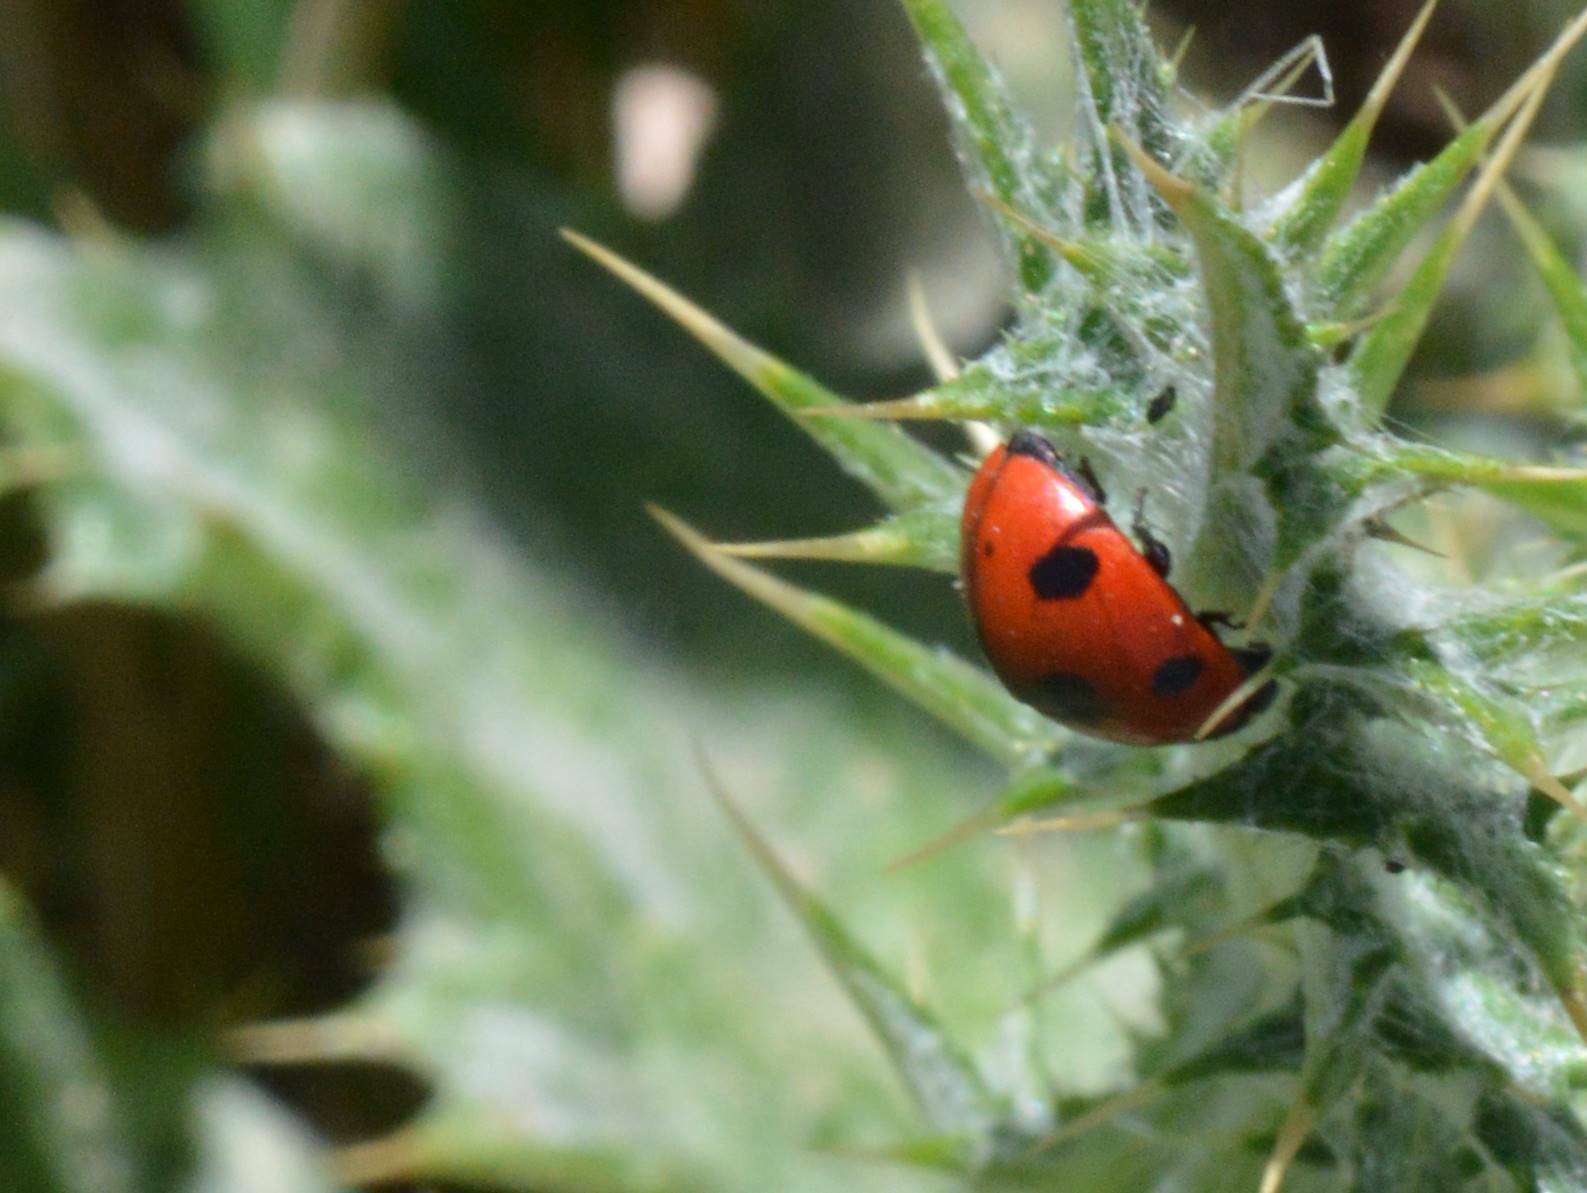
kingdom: Animalia
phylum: Arthropoda
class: Insecta
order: Coleoptera
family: Coccinellidae
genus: Coccinella
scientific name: Coccinella algerica
